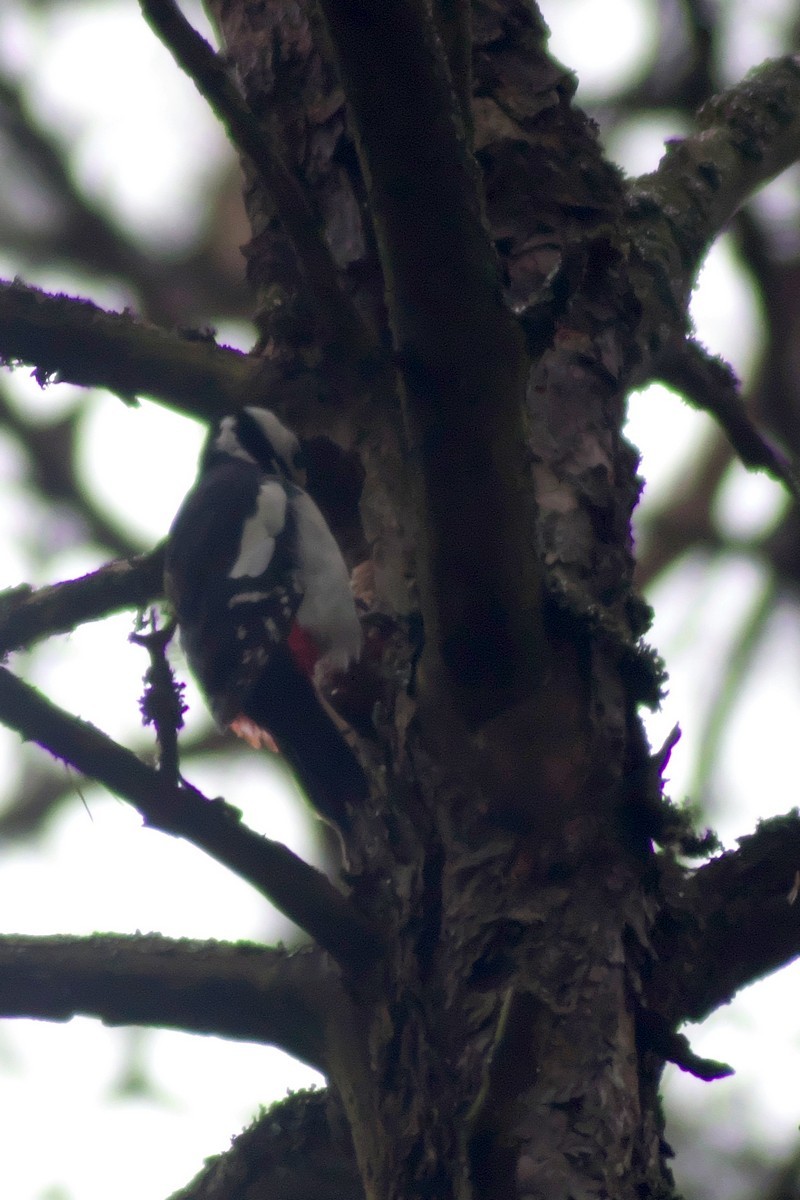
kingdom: Animalia
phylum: Chordata
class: Aves
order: Piciformes
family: Picidae
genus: Dendrocopos
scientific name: Dendrocopos major
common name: Great spotted woodpecker
